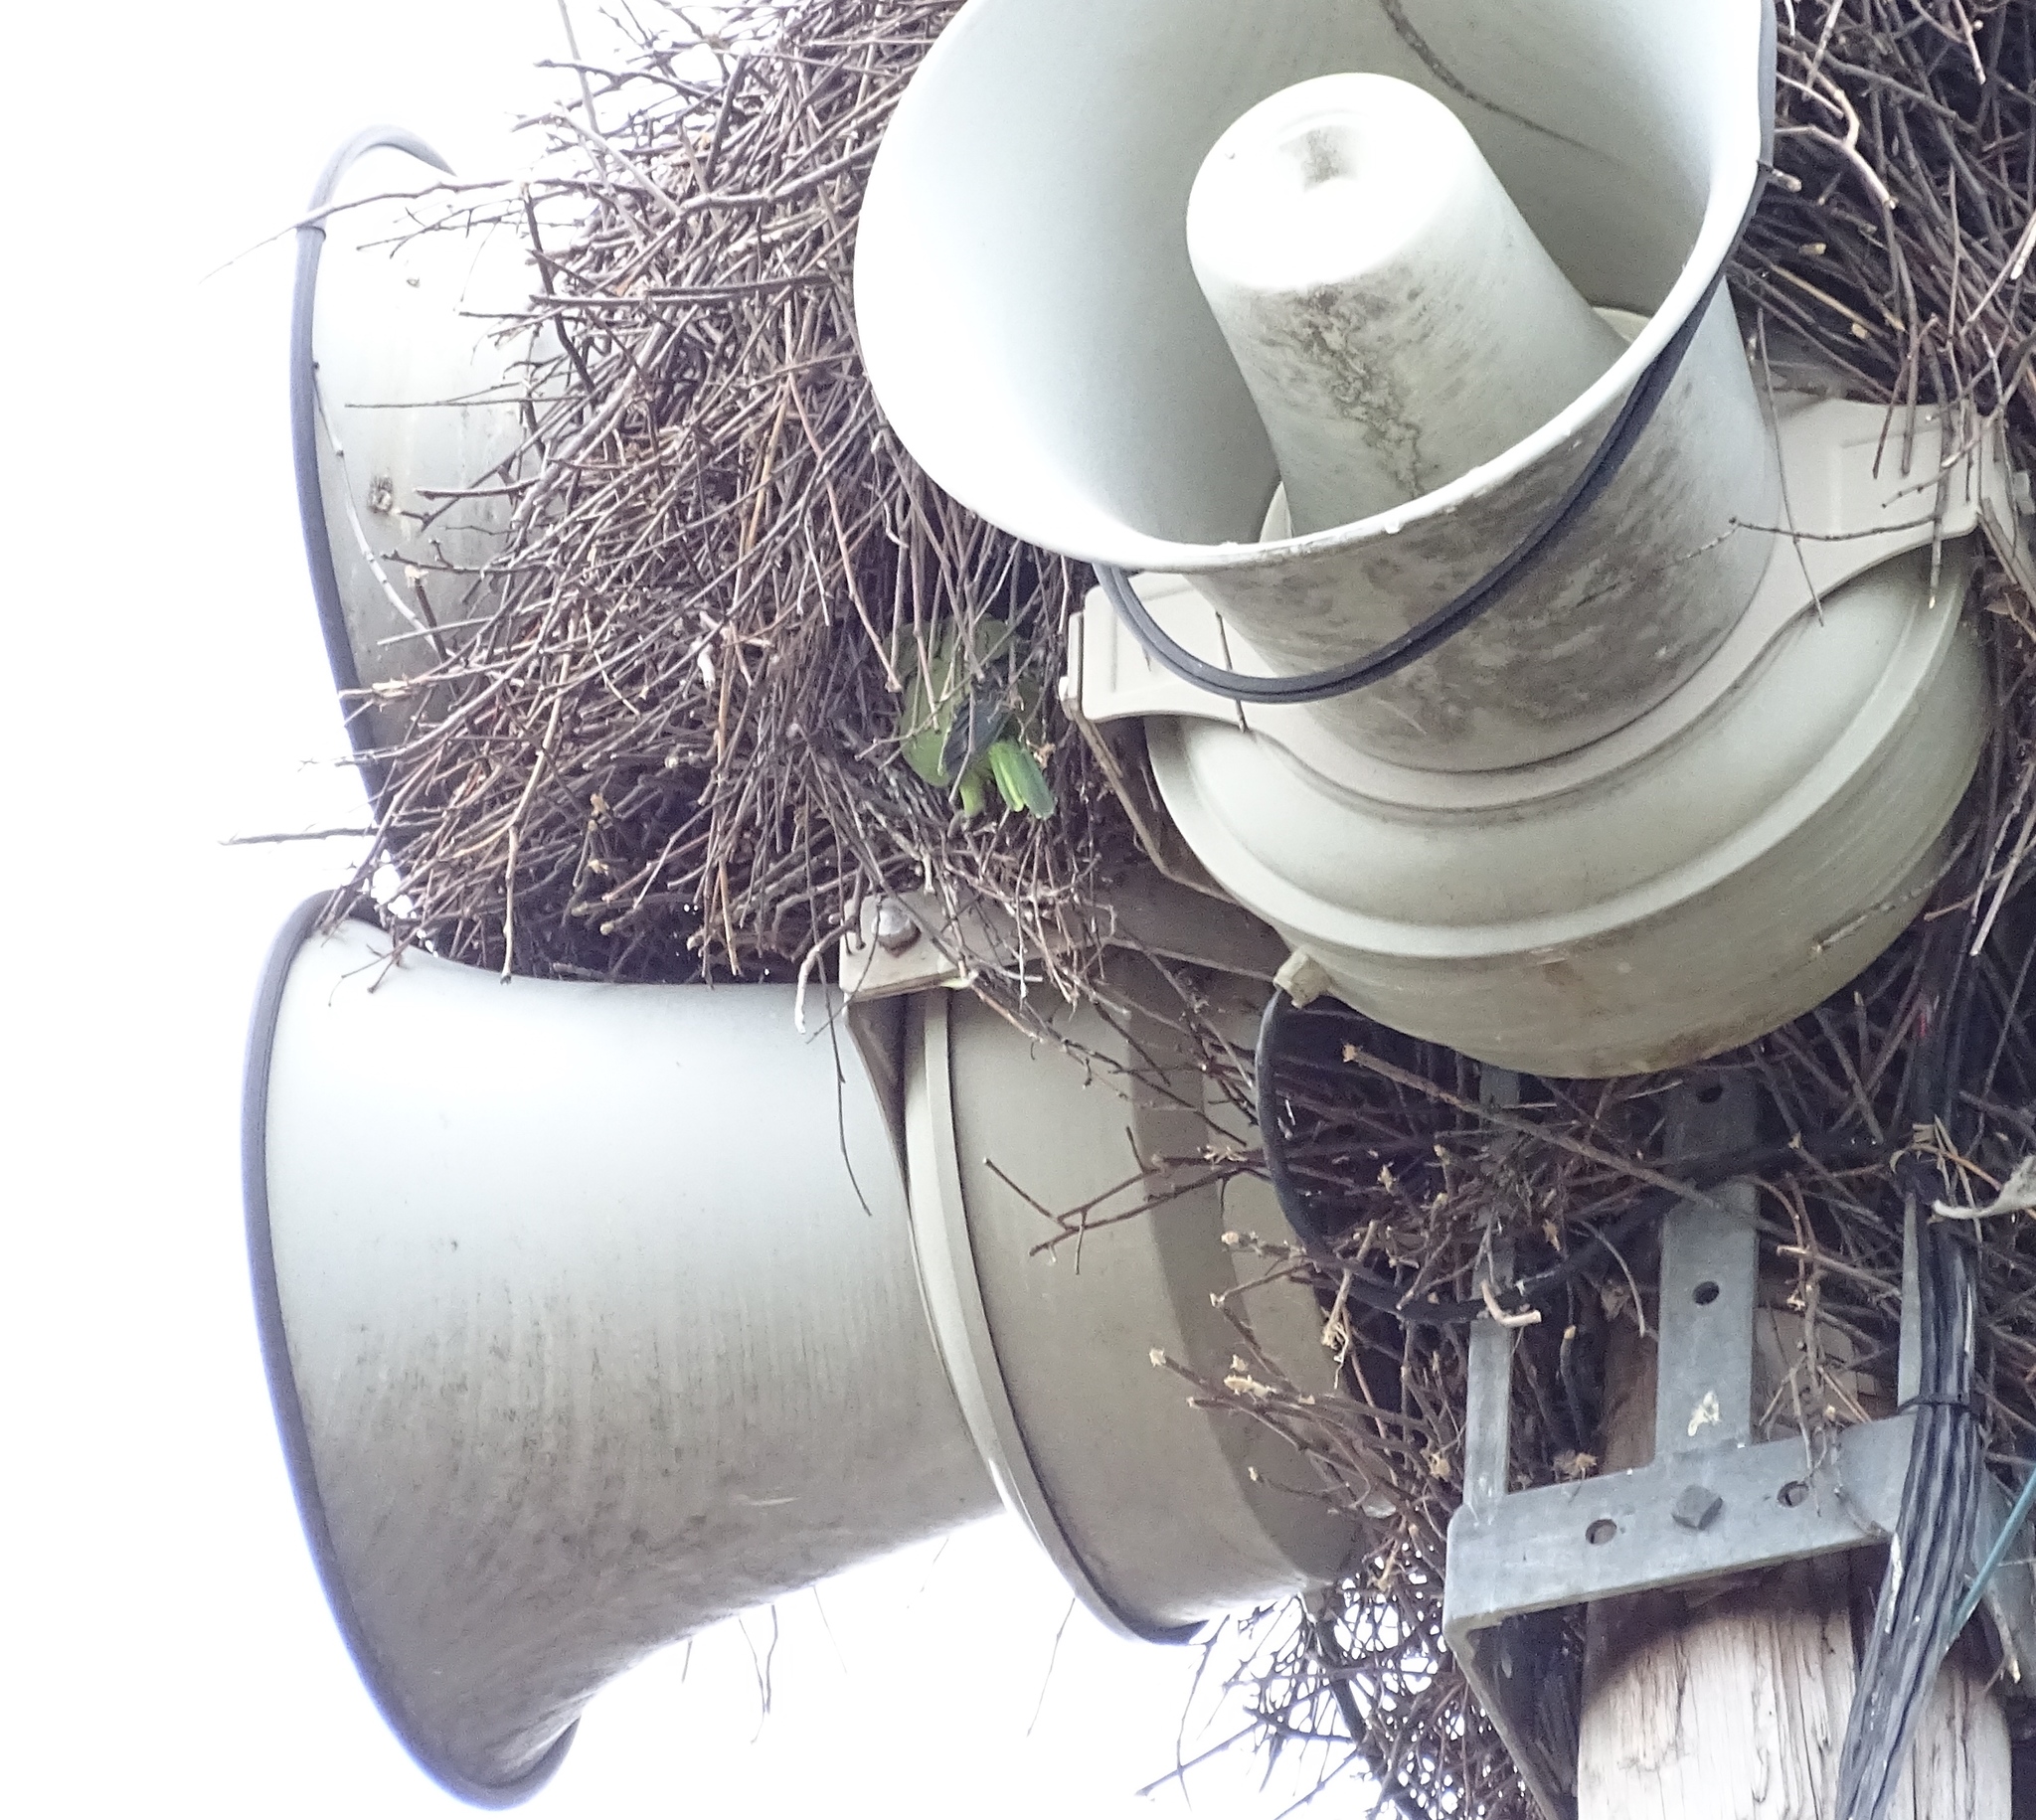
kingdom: Animalia
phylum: Chordata
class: Aves
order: Psittaciformes
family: Psittacidae
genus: Myiopsitta
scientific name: Myiopsitta monachus
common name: Monk parakeet
